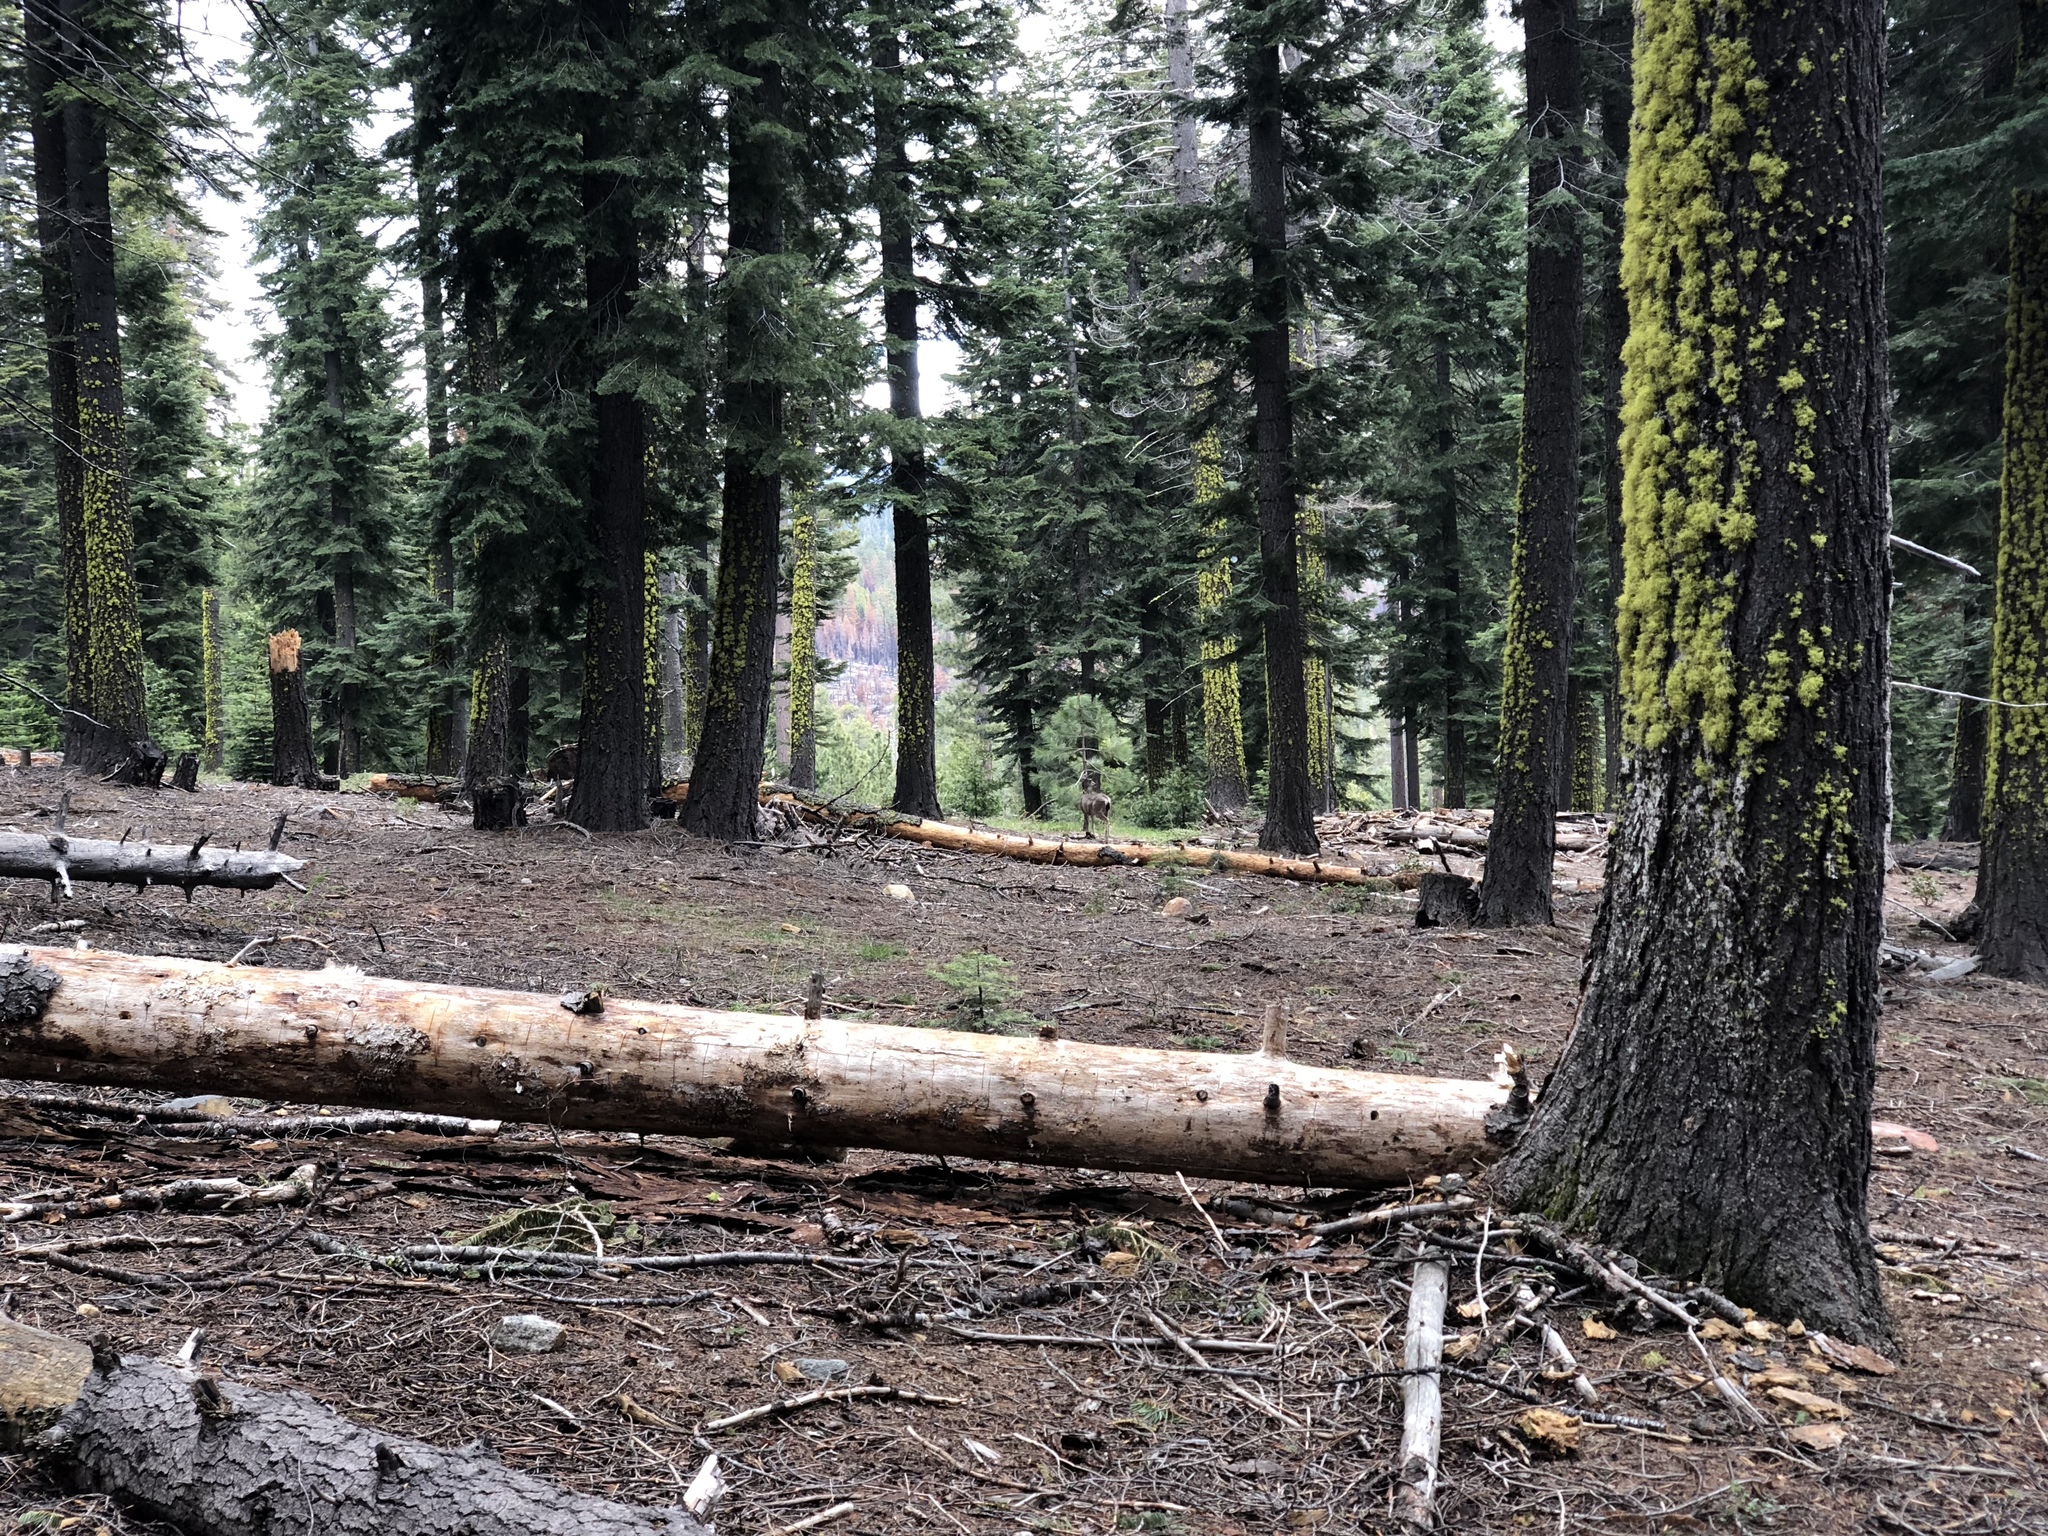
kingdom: Animalia
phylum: Chordata
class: Mammalia
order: Artiodactyla
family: Cervidae
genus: Odocoileus
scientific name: Odocoileus hemionus
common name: Mule deer
